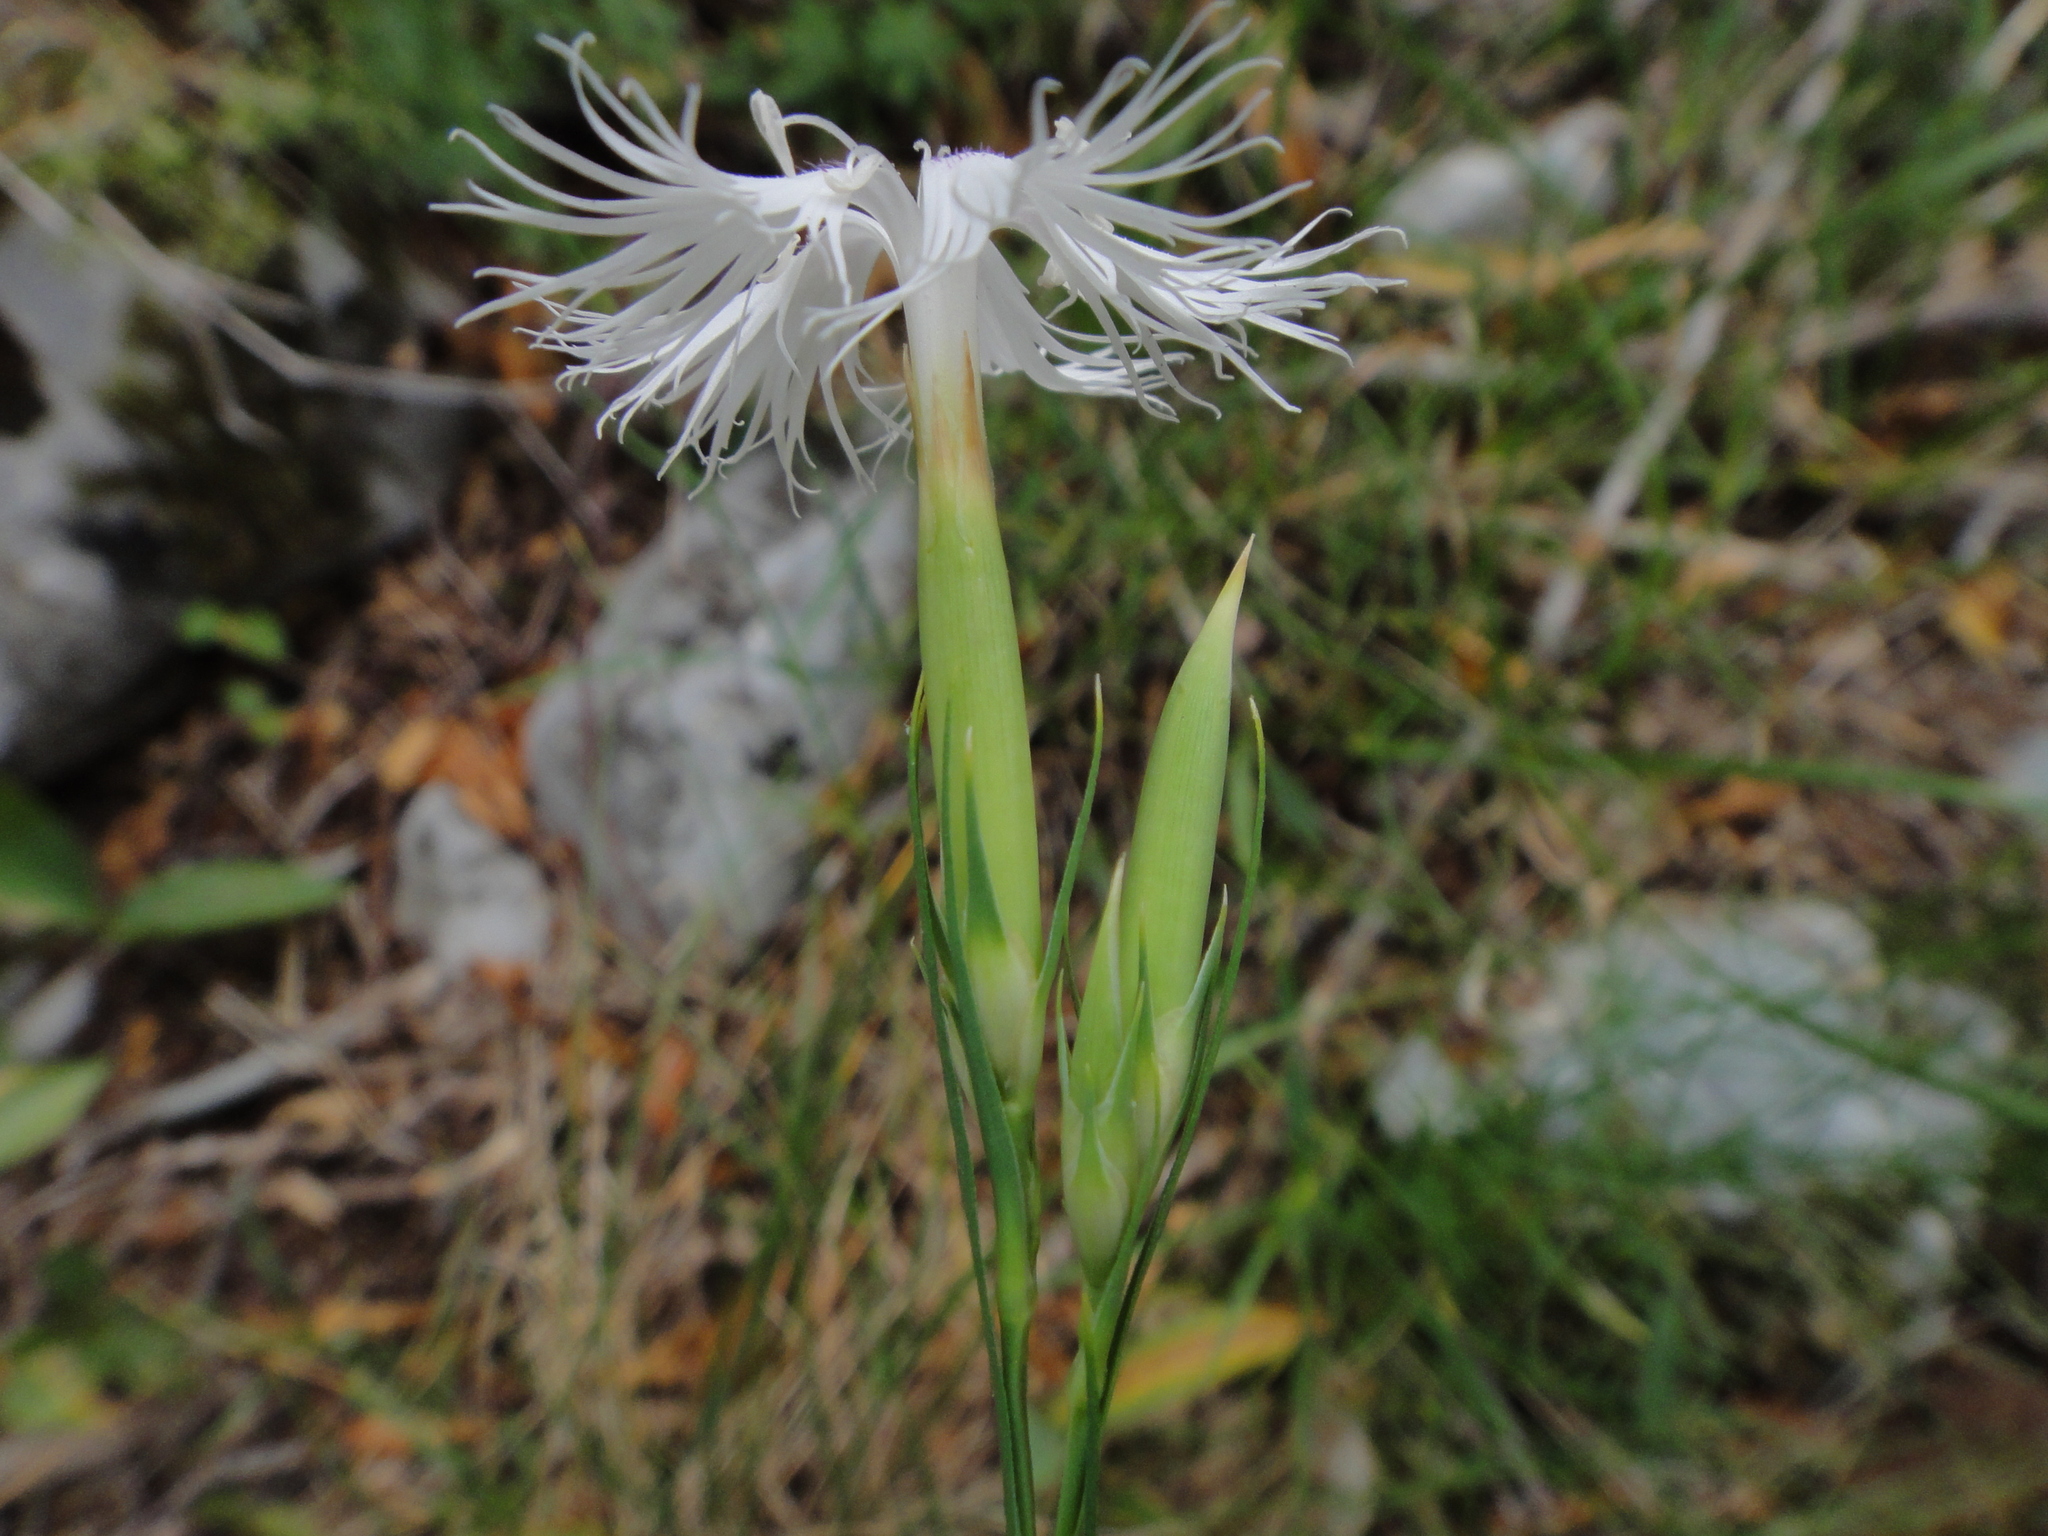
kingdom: Plantae
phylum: Tracheophyta
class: Magnoliopsida
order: Caryophyllales
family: Caryophyllaceae
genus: Dianthus
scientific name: Dianthus monspessulanus
